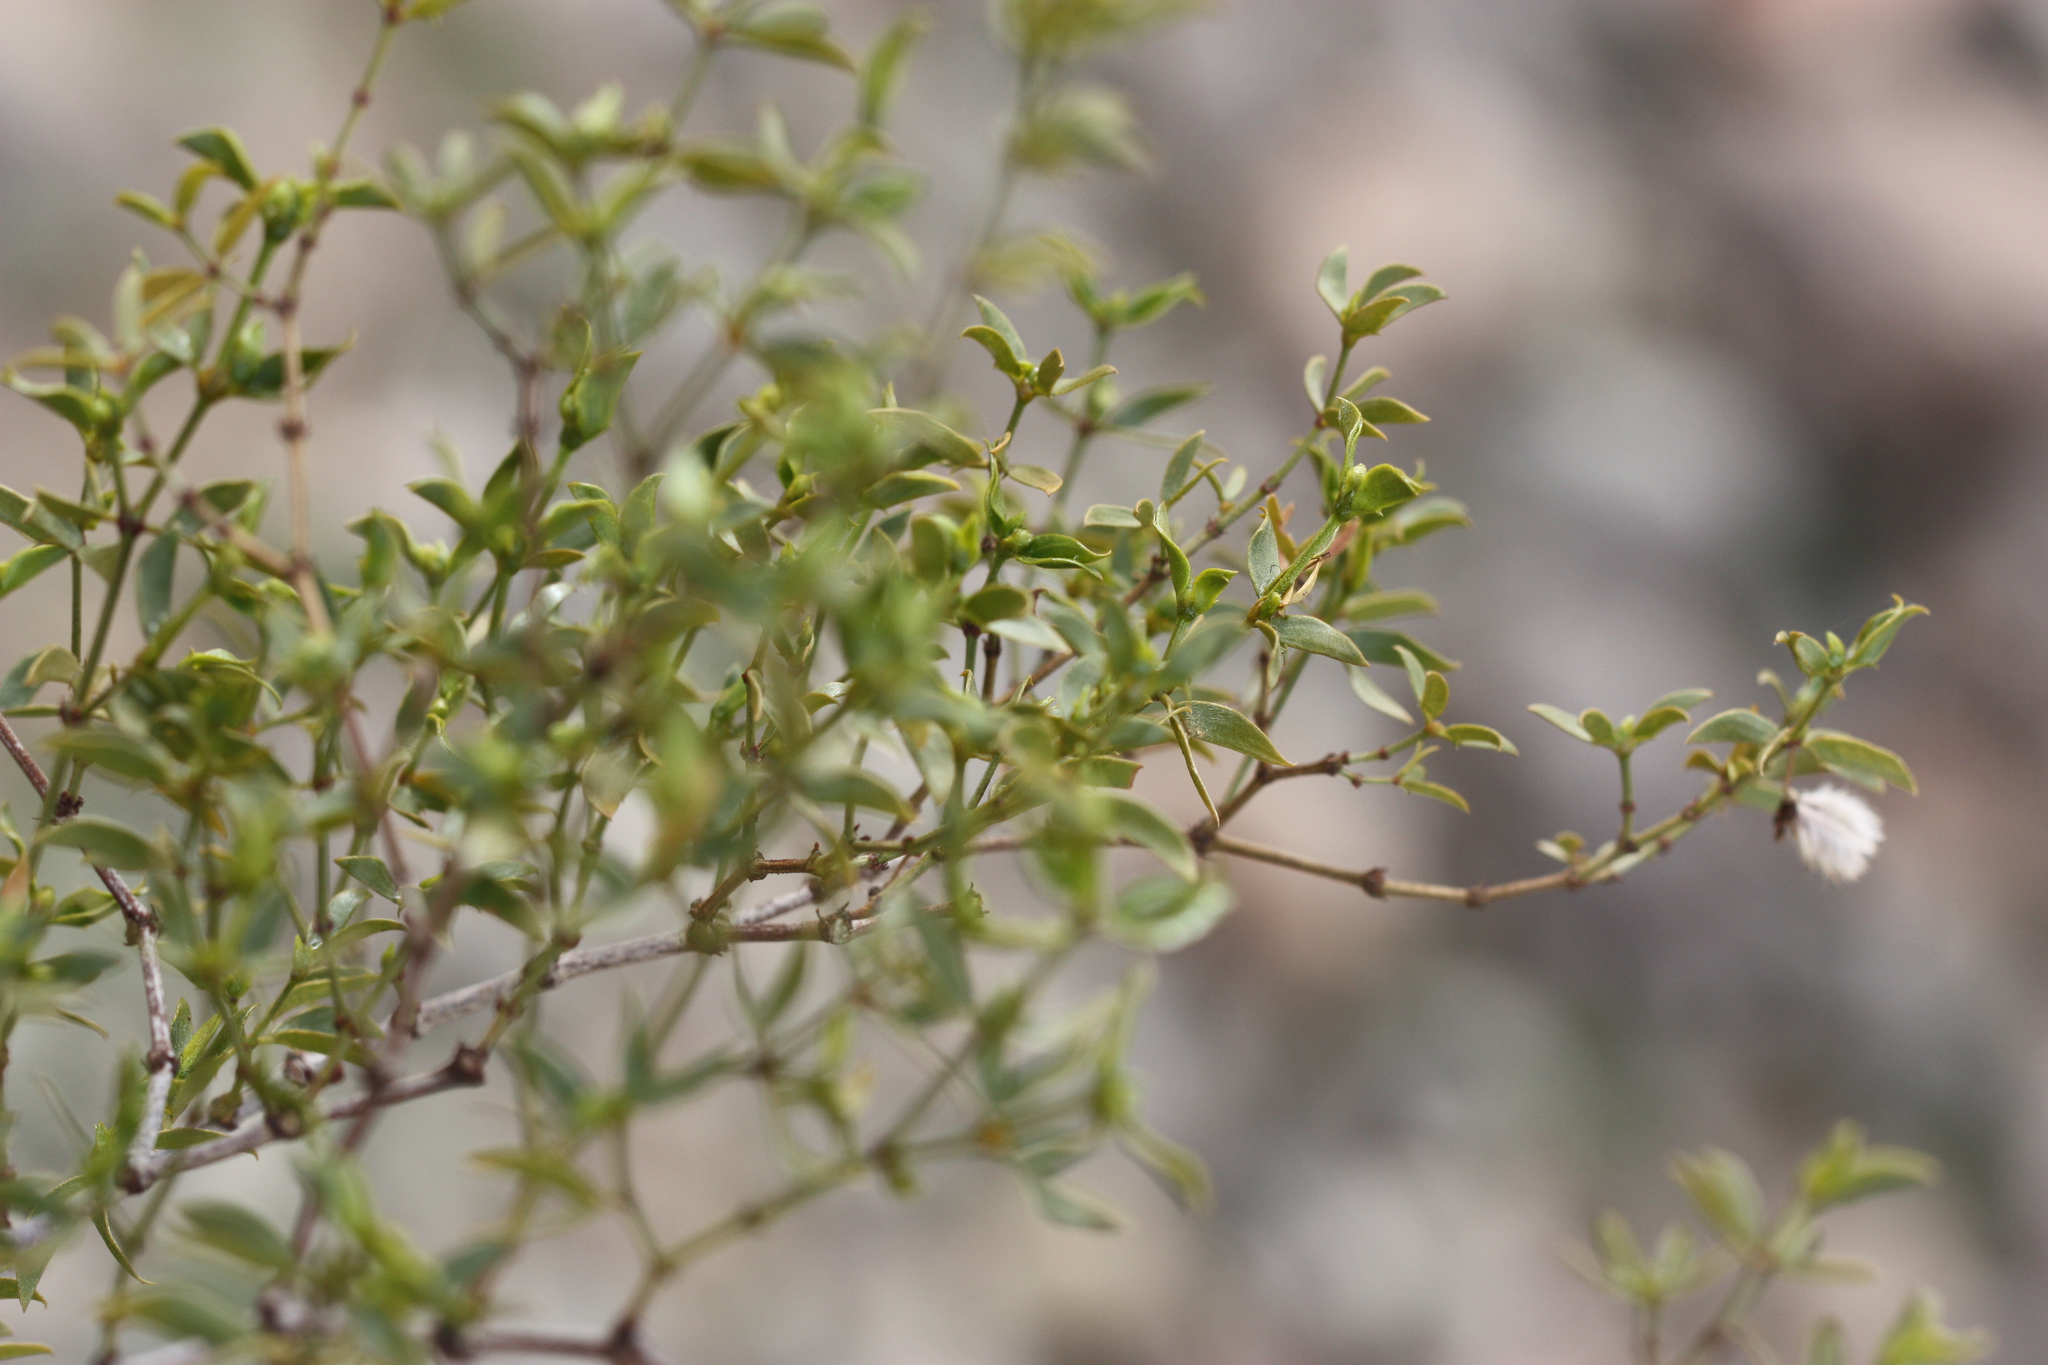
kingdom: Plantae
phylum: Tracheophyta
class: Magnoliopsida
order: Zygophyllales
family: Zygophyllaceae
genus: Larrea
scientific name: Larrea tridentata
